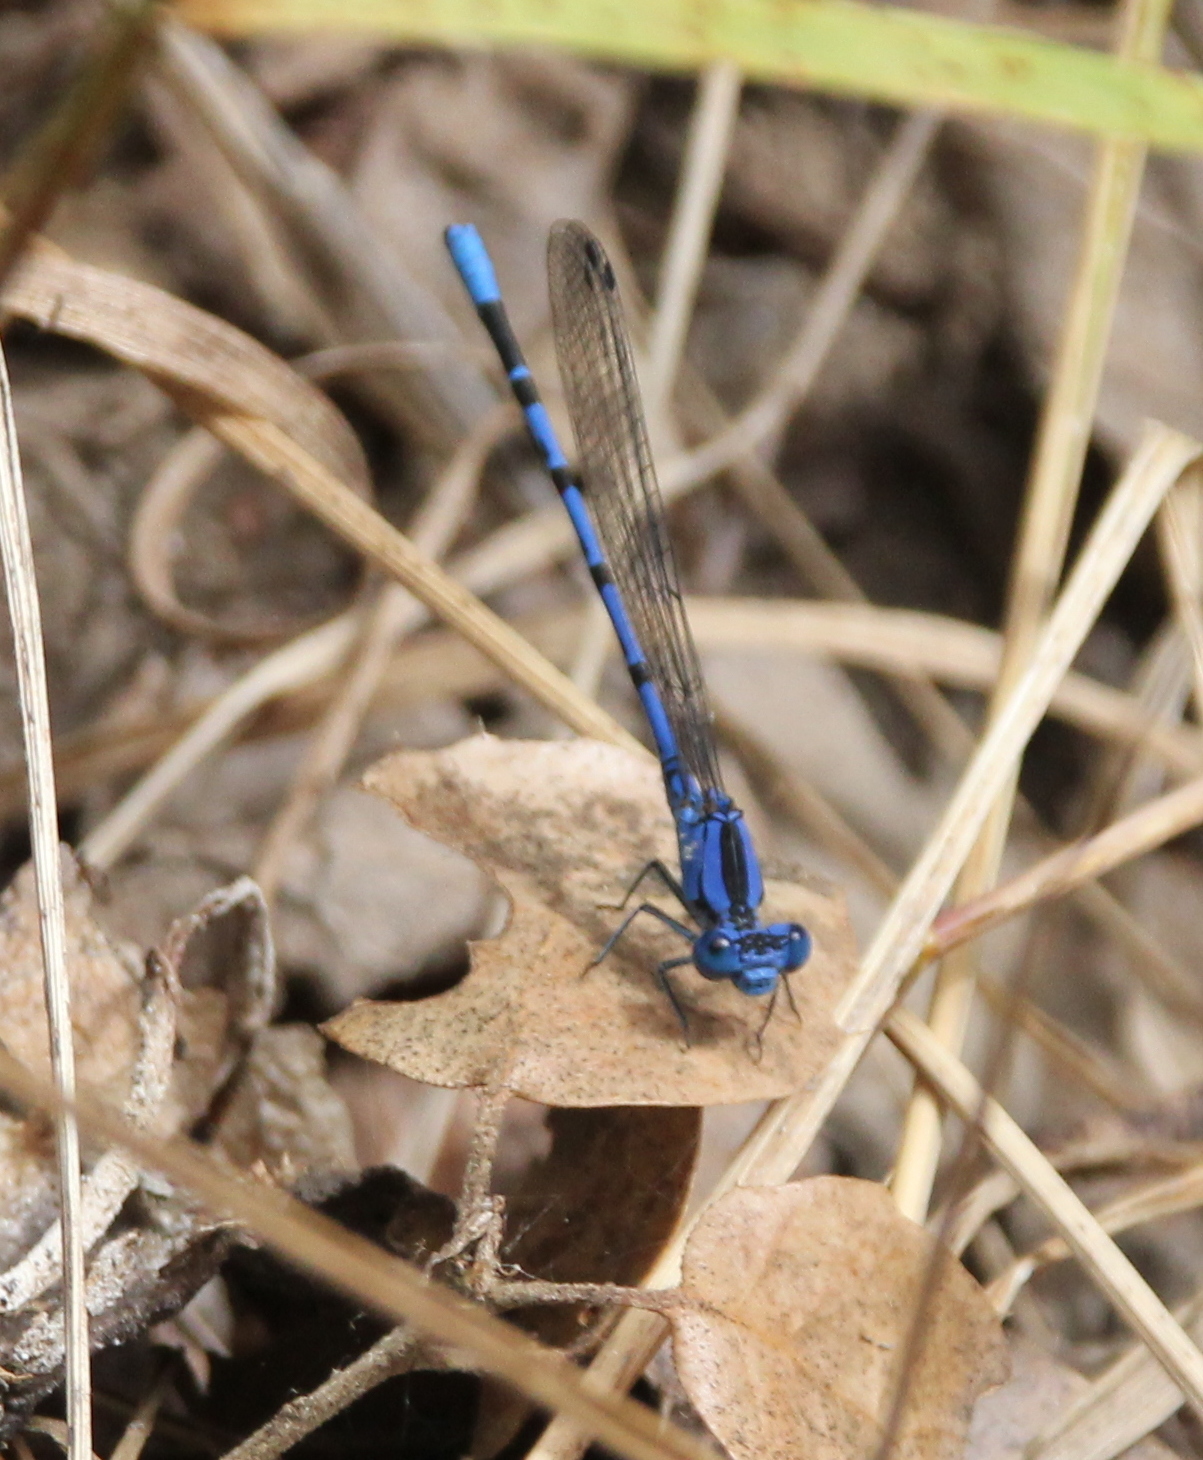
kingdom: Animalia
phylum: Arthropoda
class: Insecta
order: Odonata
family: Coenagrionidae
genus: Argia
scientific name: Argia vivida
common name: Vivid dancer
